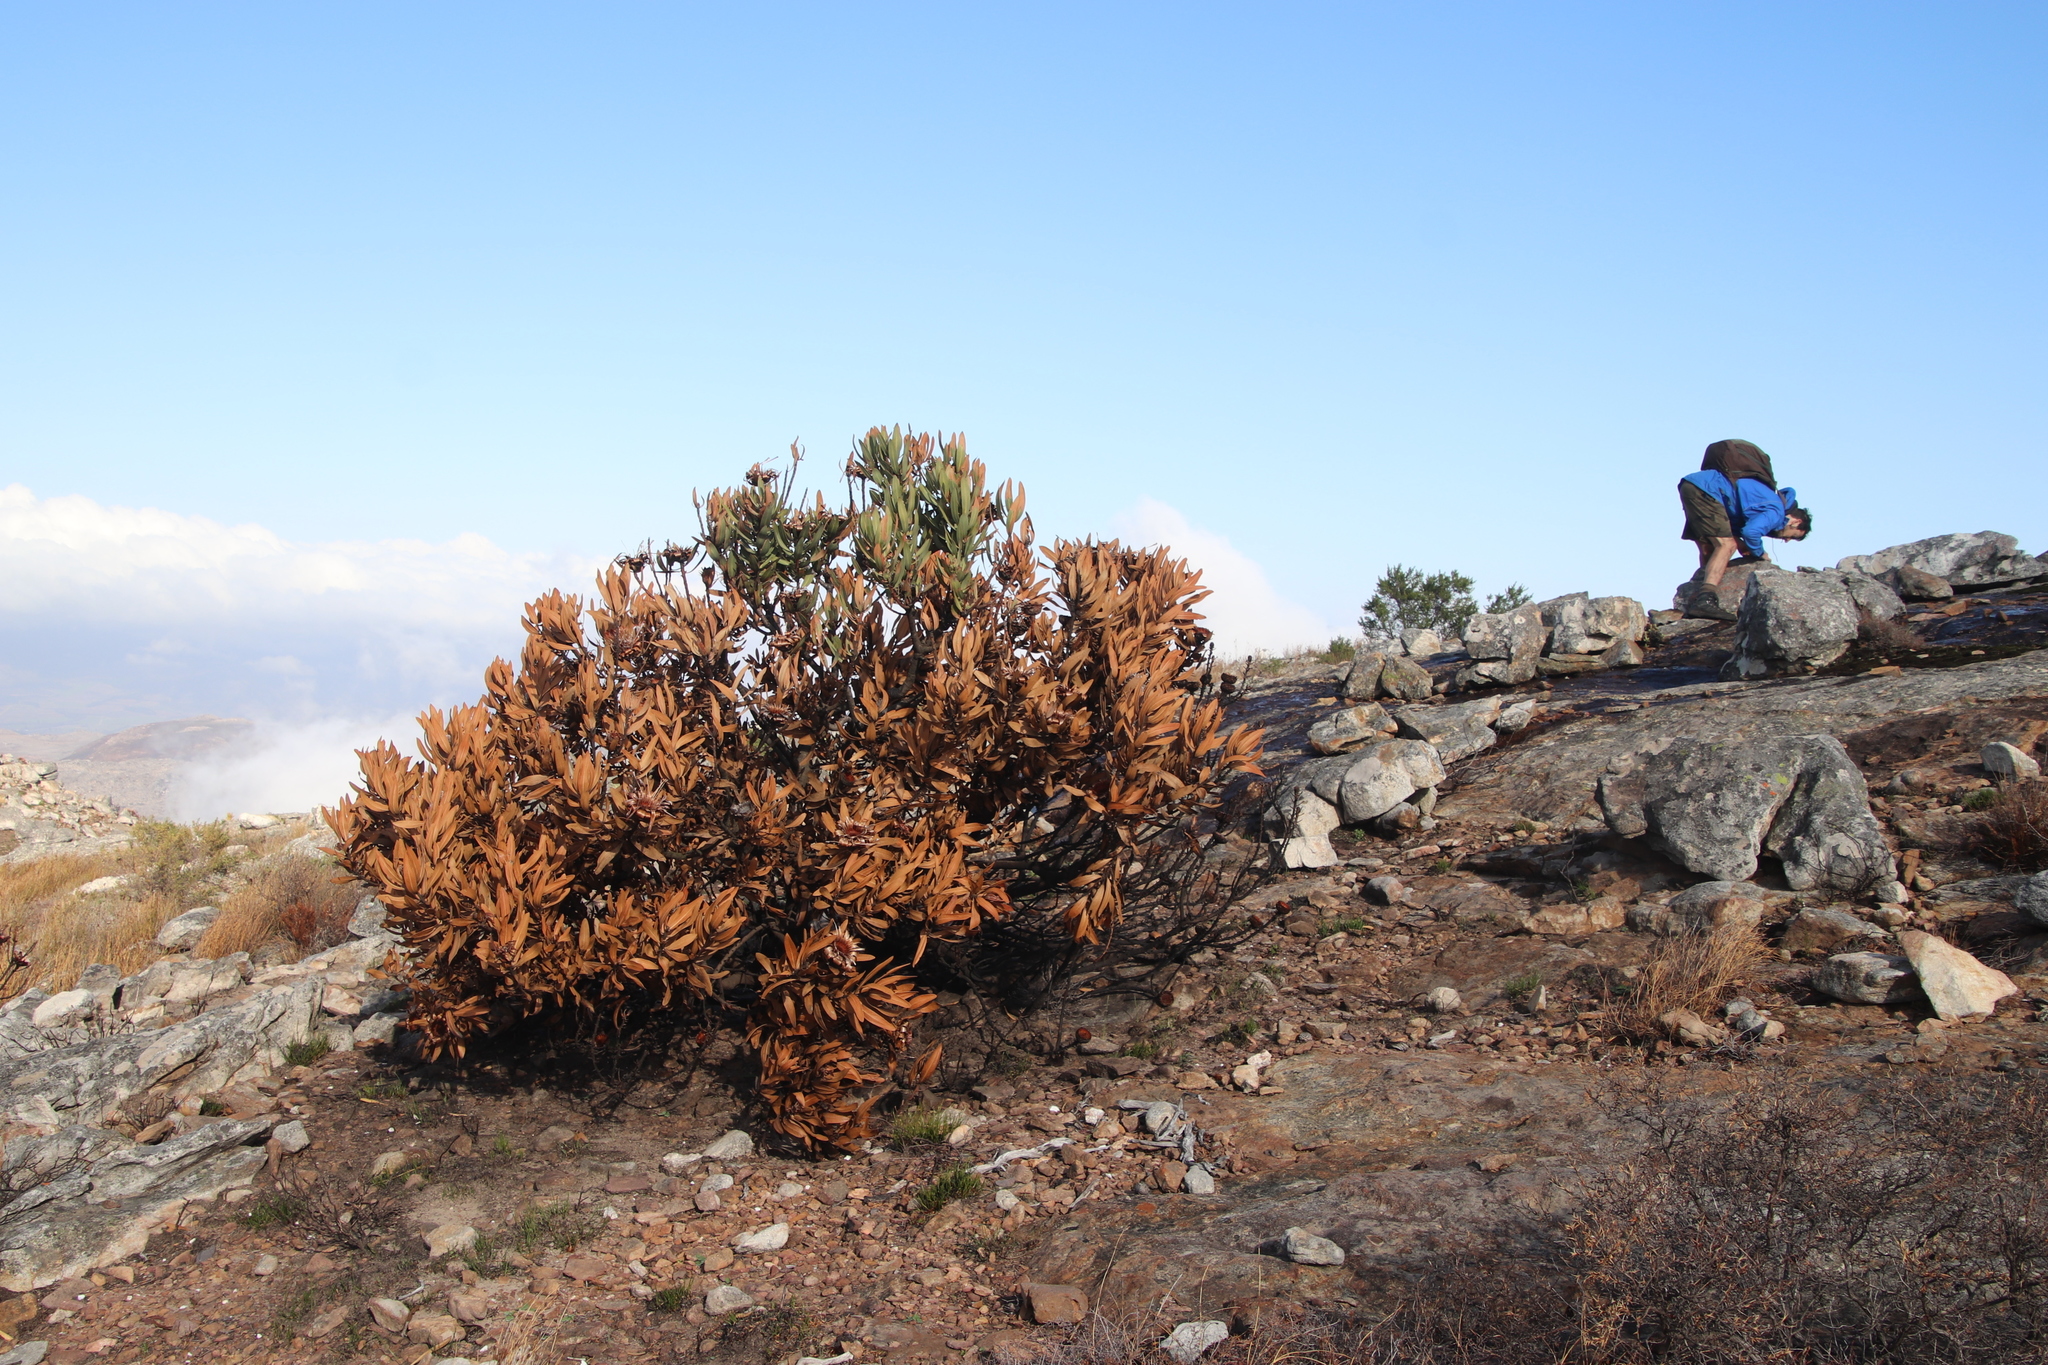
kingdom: Plantae
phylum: Tracheophyta
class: Magnoliopsida
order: Proteales
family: Proteaceae
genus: Protea
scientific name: Protea laurifolia
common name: Grey-leaf sugarbsh
